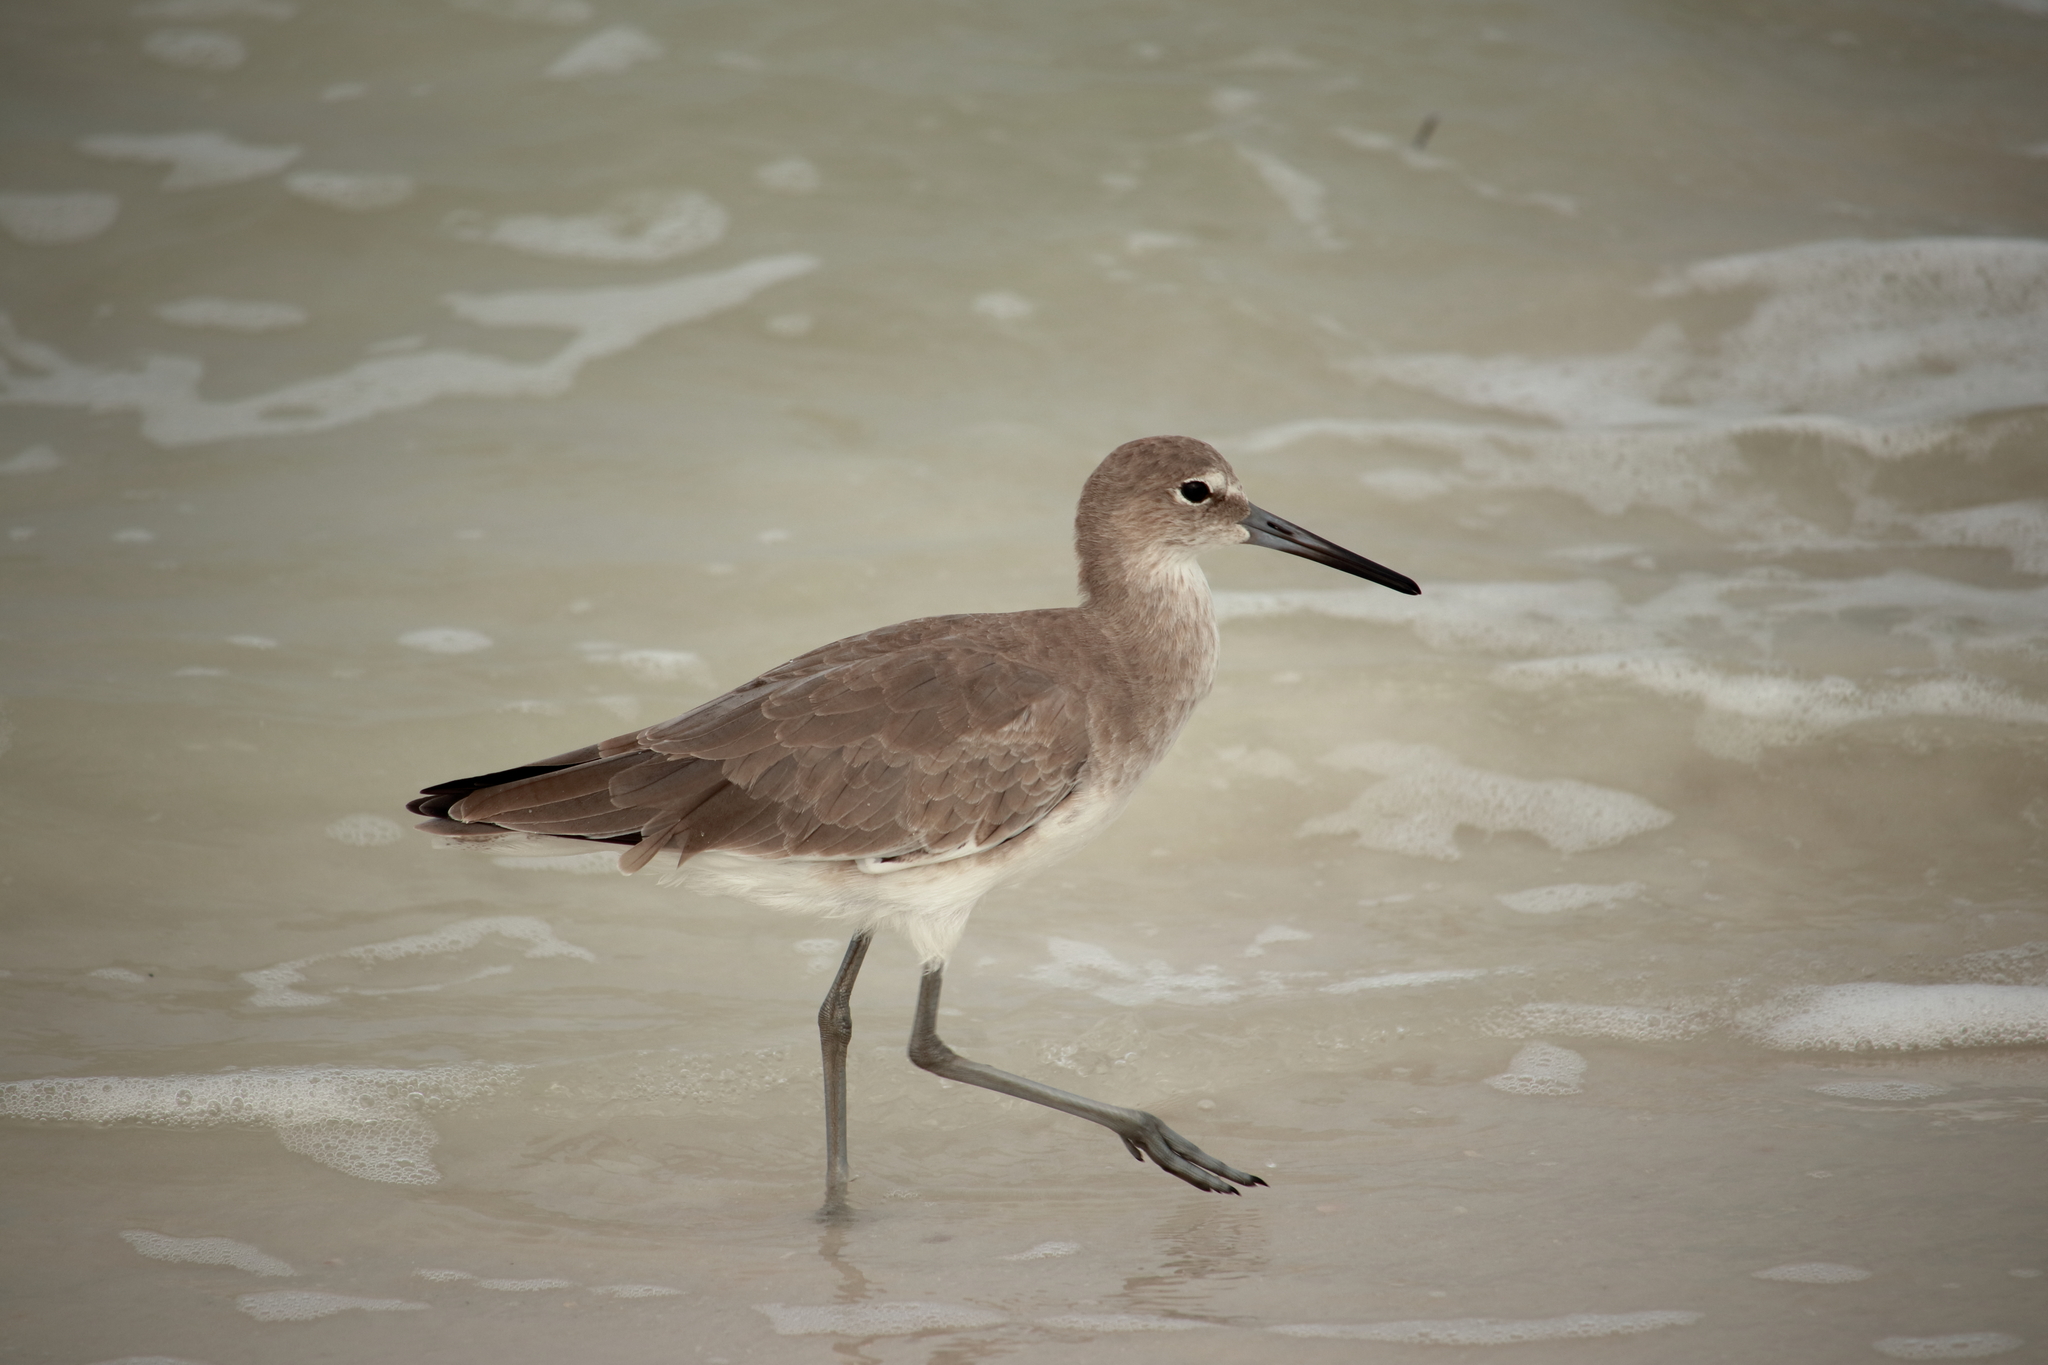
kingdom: Animalia
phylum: Chordata
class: Aves
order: Charadriiformes
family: Scolopacidae
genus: Tringa
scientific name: Tringa semipalmata
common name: Willet
